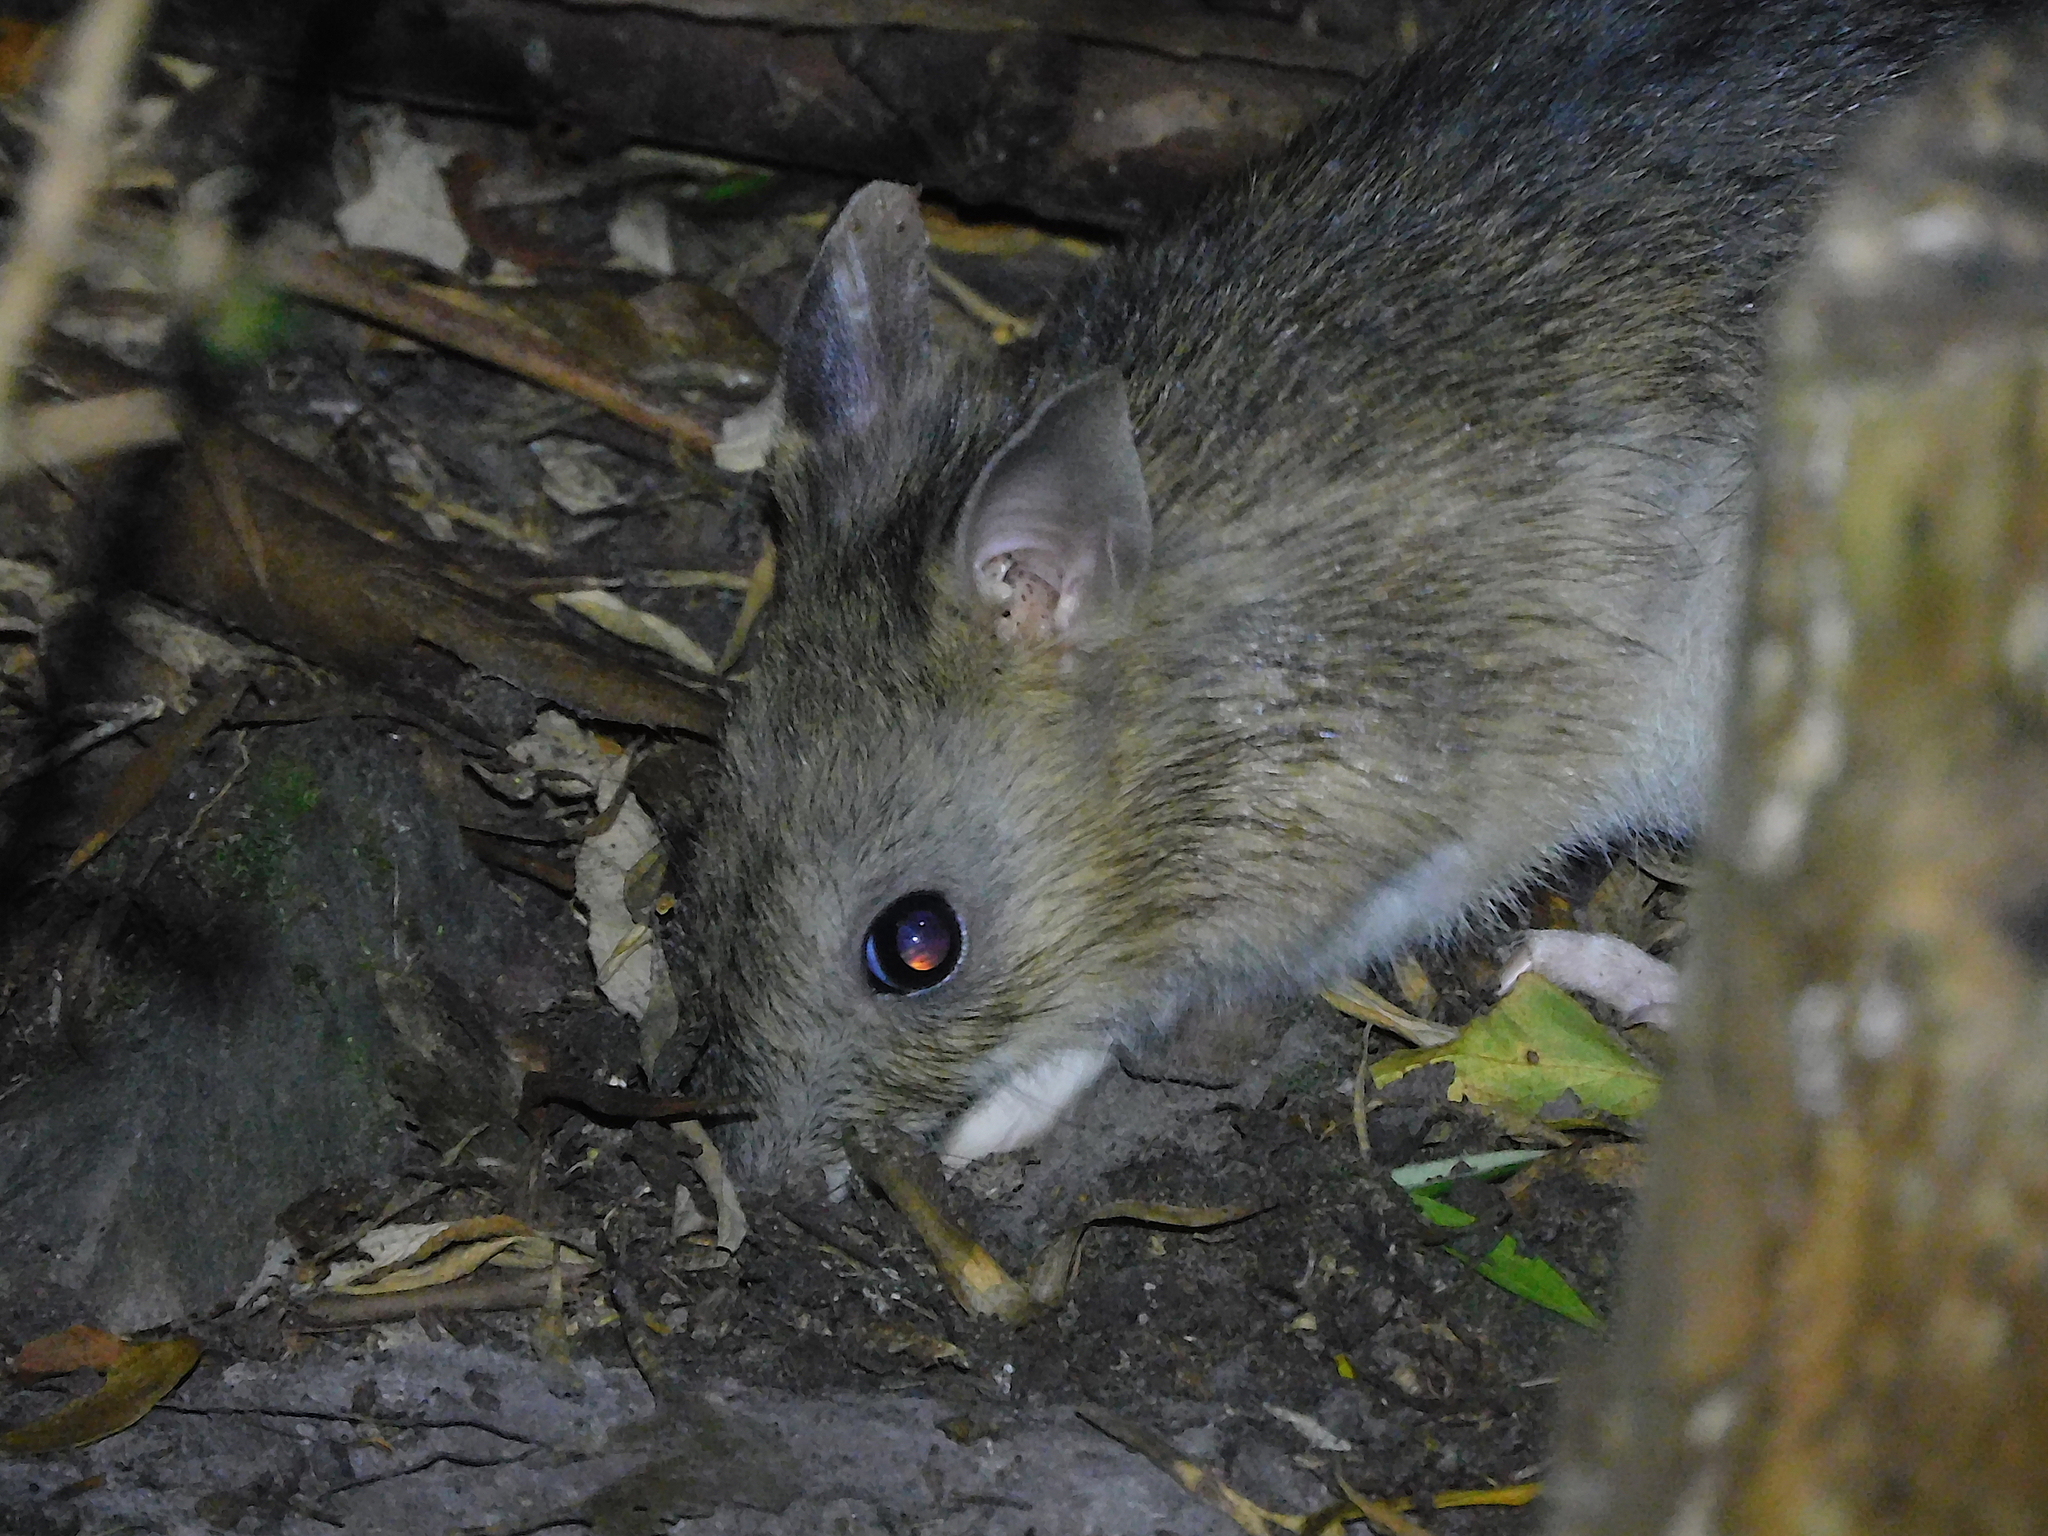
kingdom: Animalia
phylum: Chordata
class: Mammalia
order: Peramelemorphia
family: Peramelidae
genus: Perameles
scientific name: Perameles gunnii
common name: Eastern barred bandicoot
